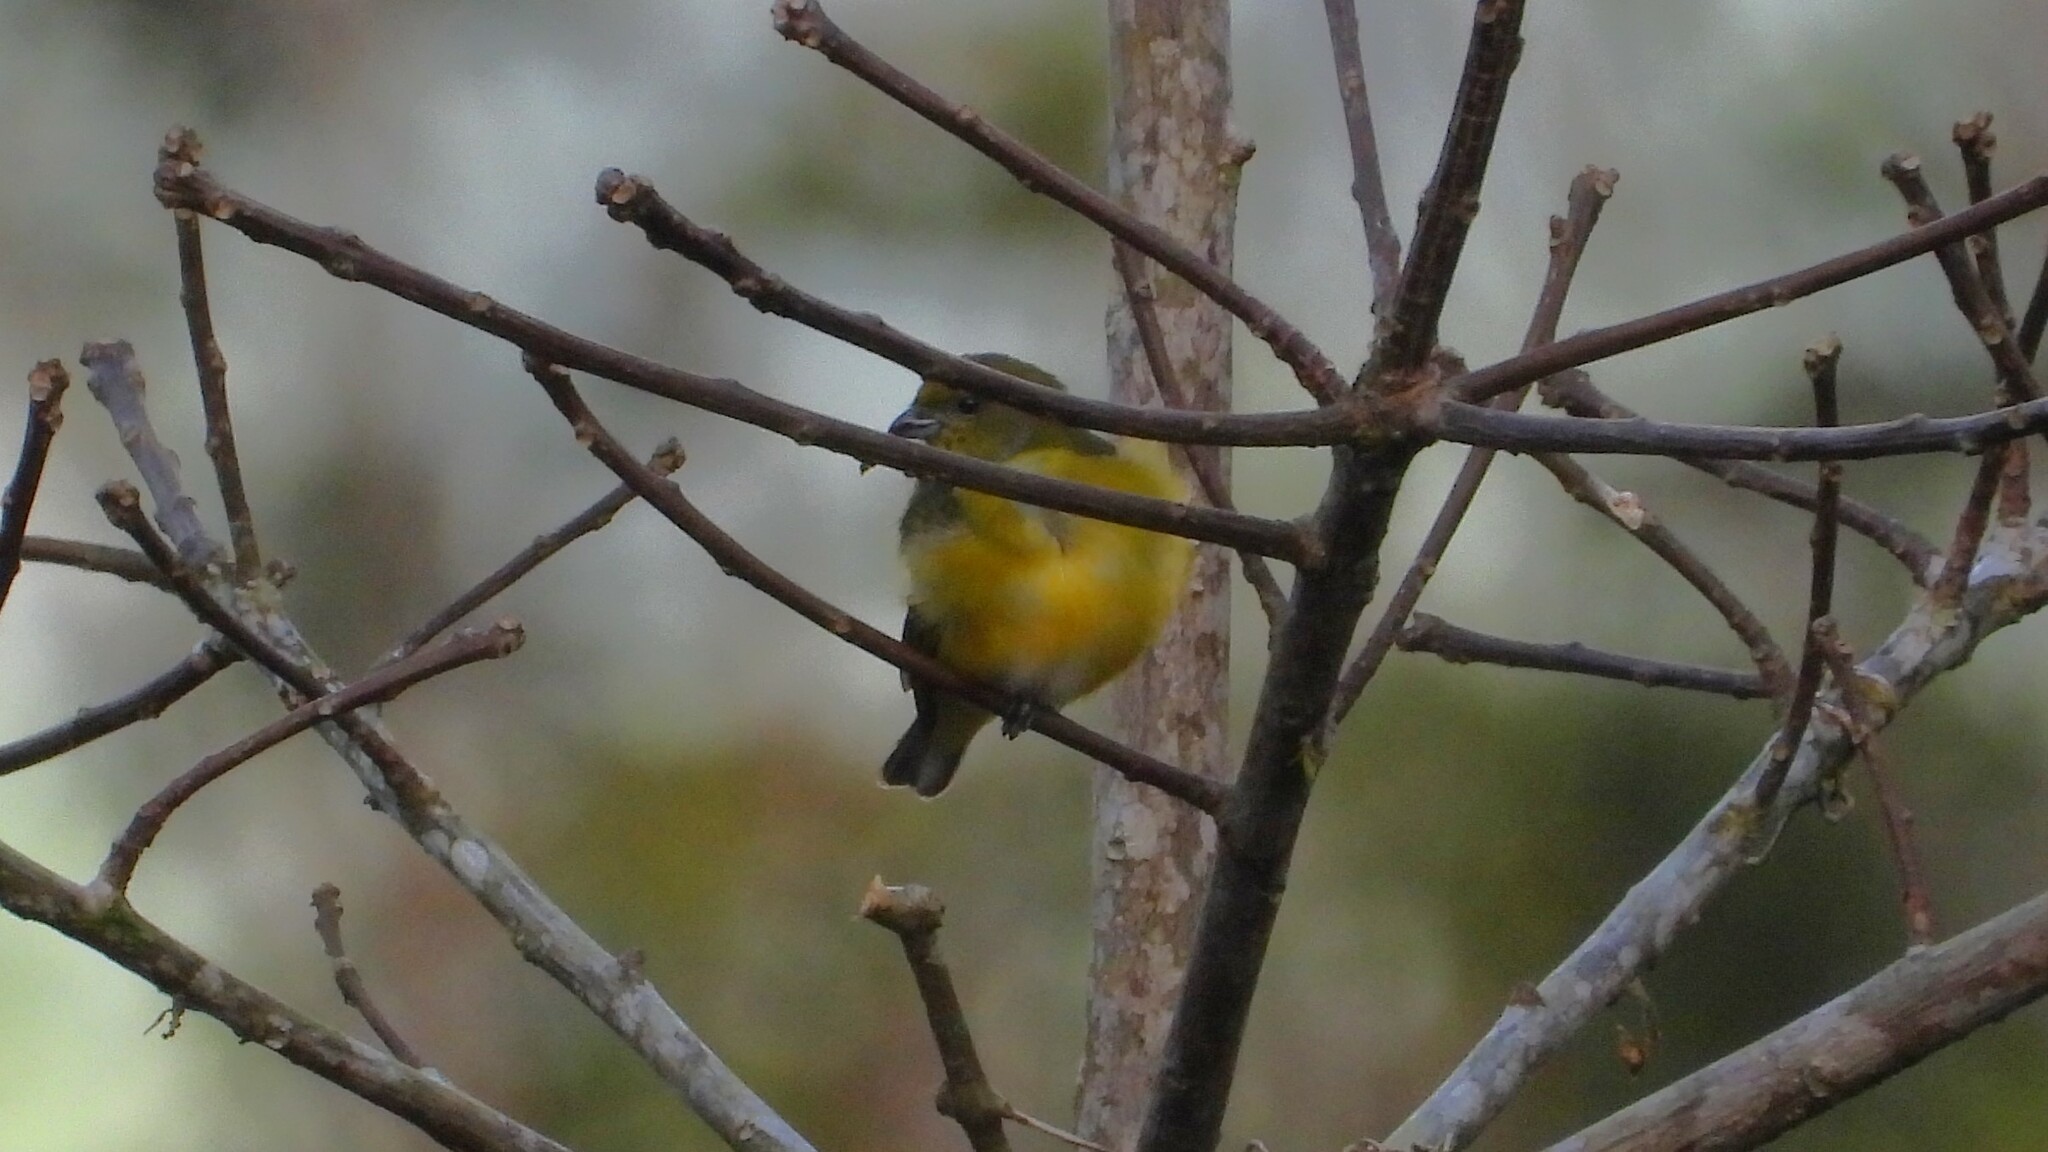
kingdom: Animalia
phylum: Chordata
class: Aves
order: Passeriformes
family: Fringillidae
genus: Euphonia
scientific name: Euphonia hirundinacea
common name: Yellow-throated euphonia
